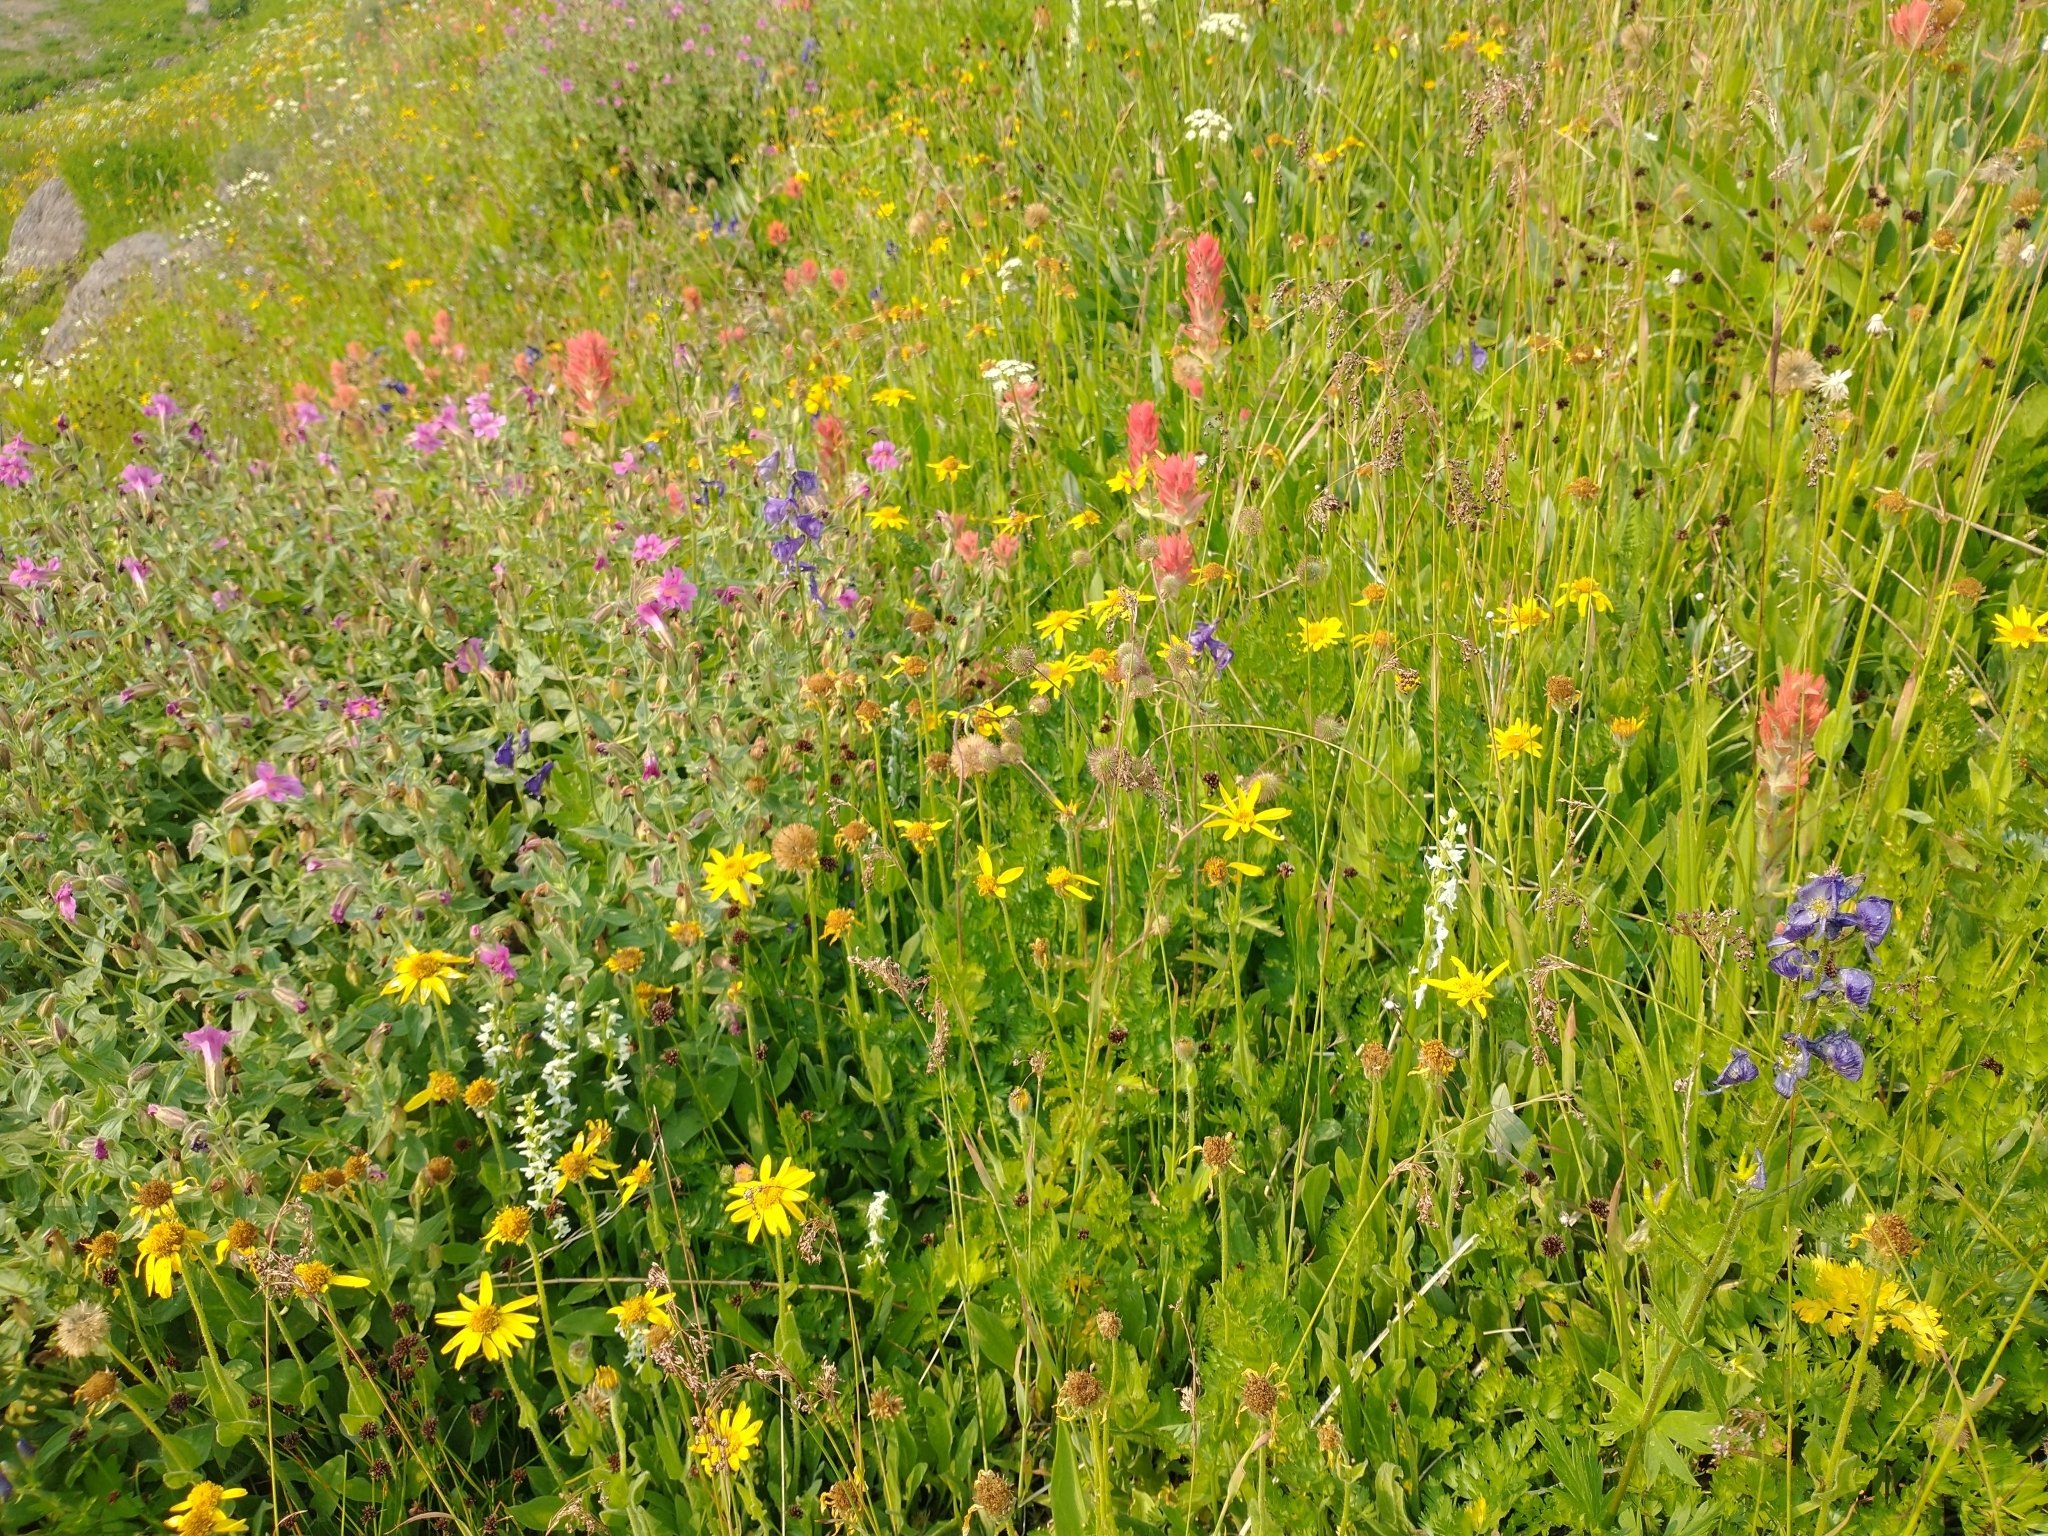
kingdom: Plantae
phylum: Tracheophyta
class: Liliopsida
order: Asparagales
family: Orchidaceae
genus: Platanthera
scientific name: Platanthera dilatata
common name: Bog candles
